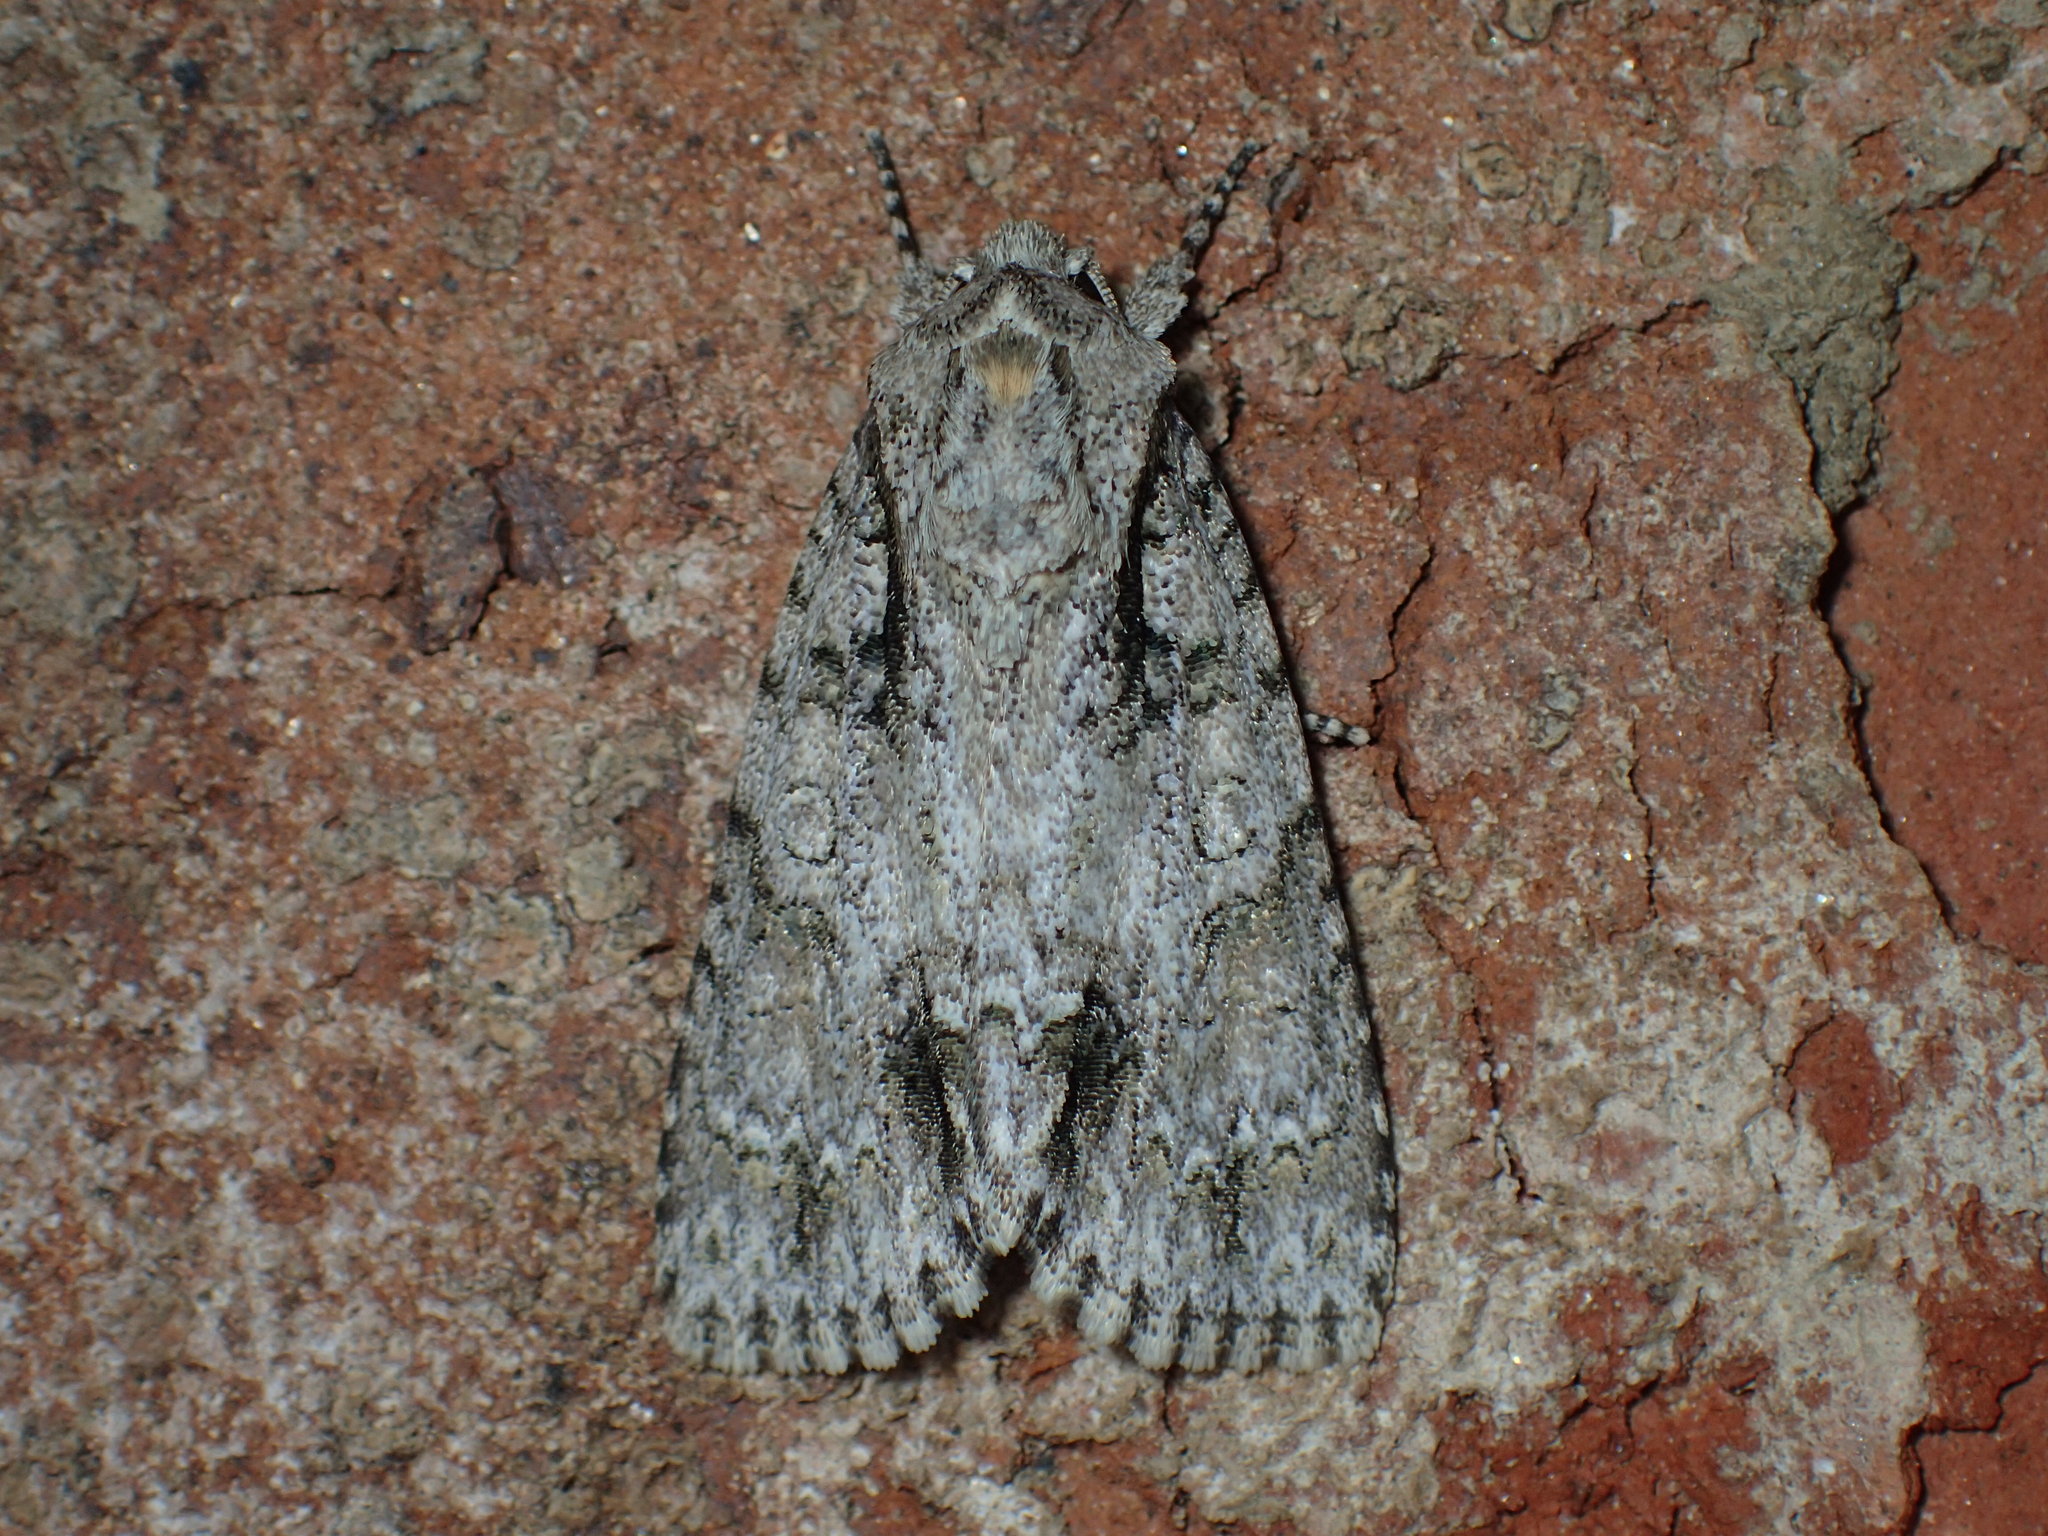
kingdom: Animalia
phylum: Arthropoda
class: Insecta
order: Lepidoptera
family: Noctuidae
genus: Acronicta
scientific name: Acronicta clarescens
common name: Clear dagger
